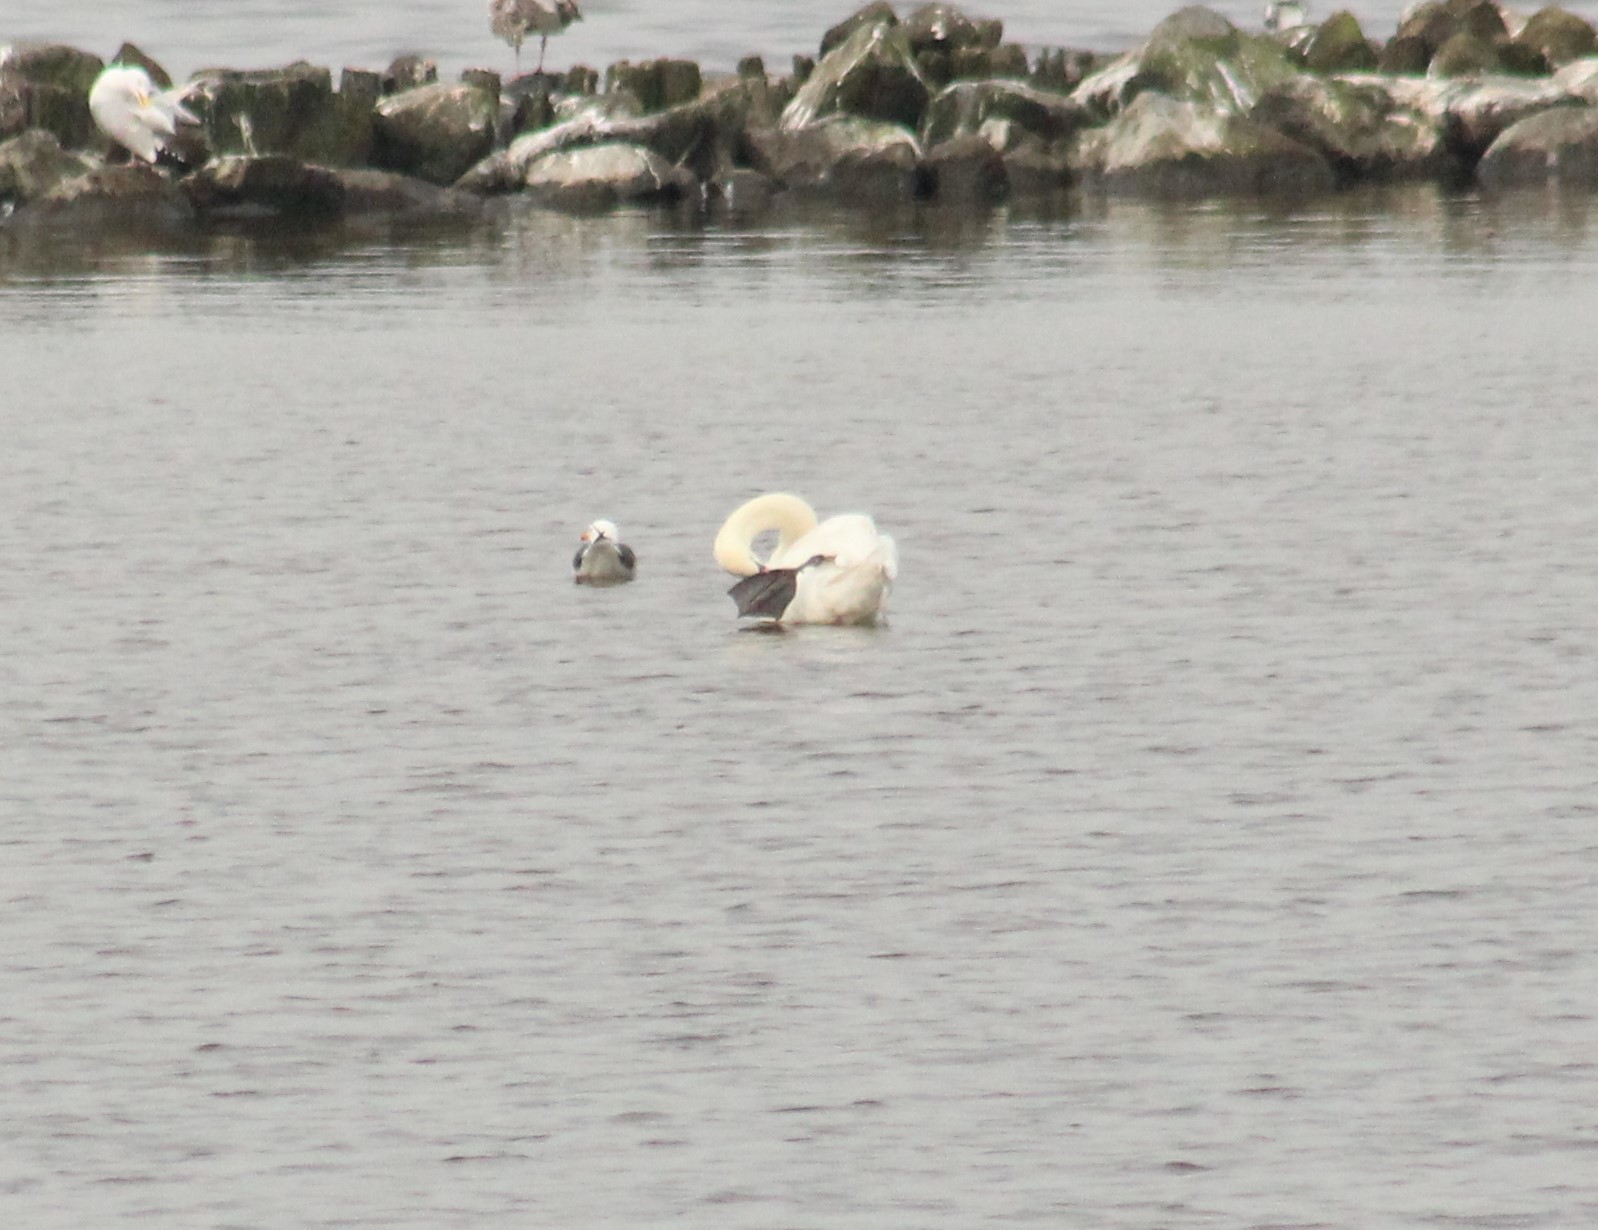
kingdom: Animalia
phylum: Chordata
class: Aves
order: Anseriformes
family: Anatidae
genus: Cygnus
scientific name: Cygnus olor
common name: Mute swan
